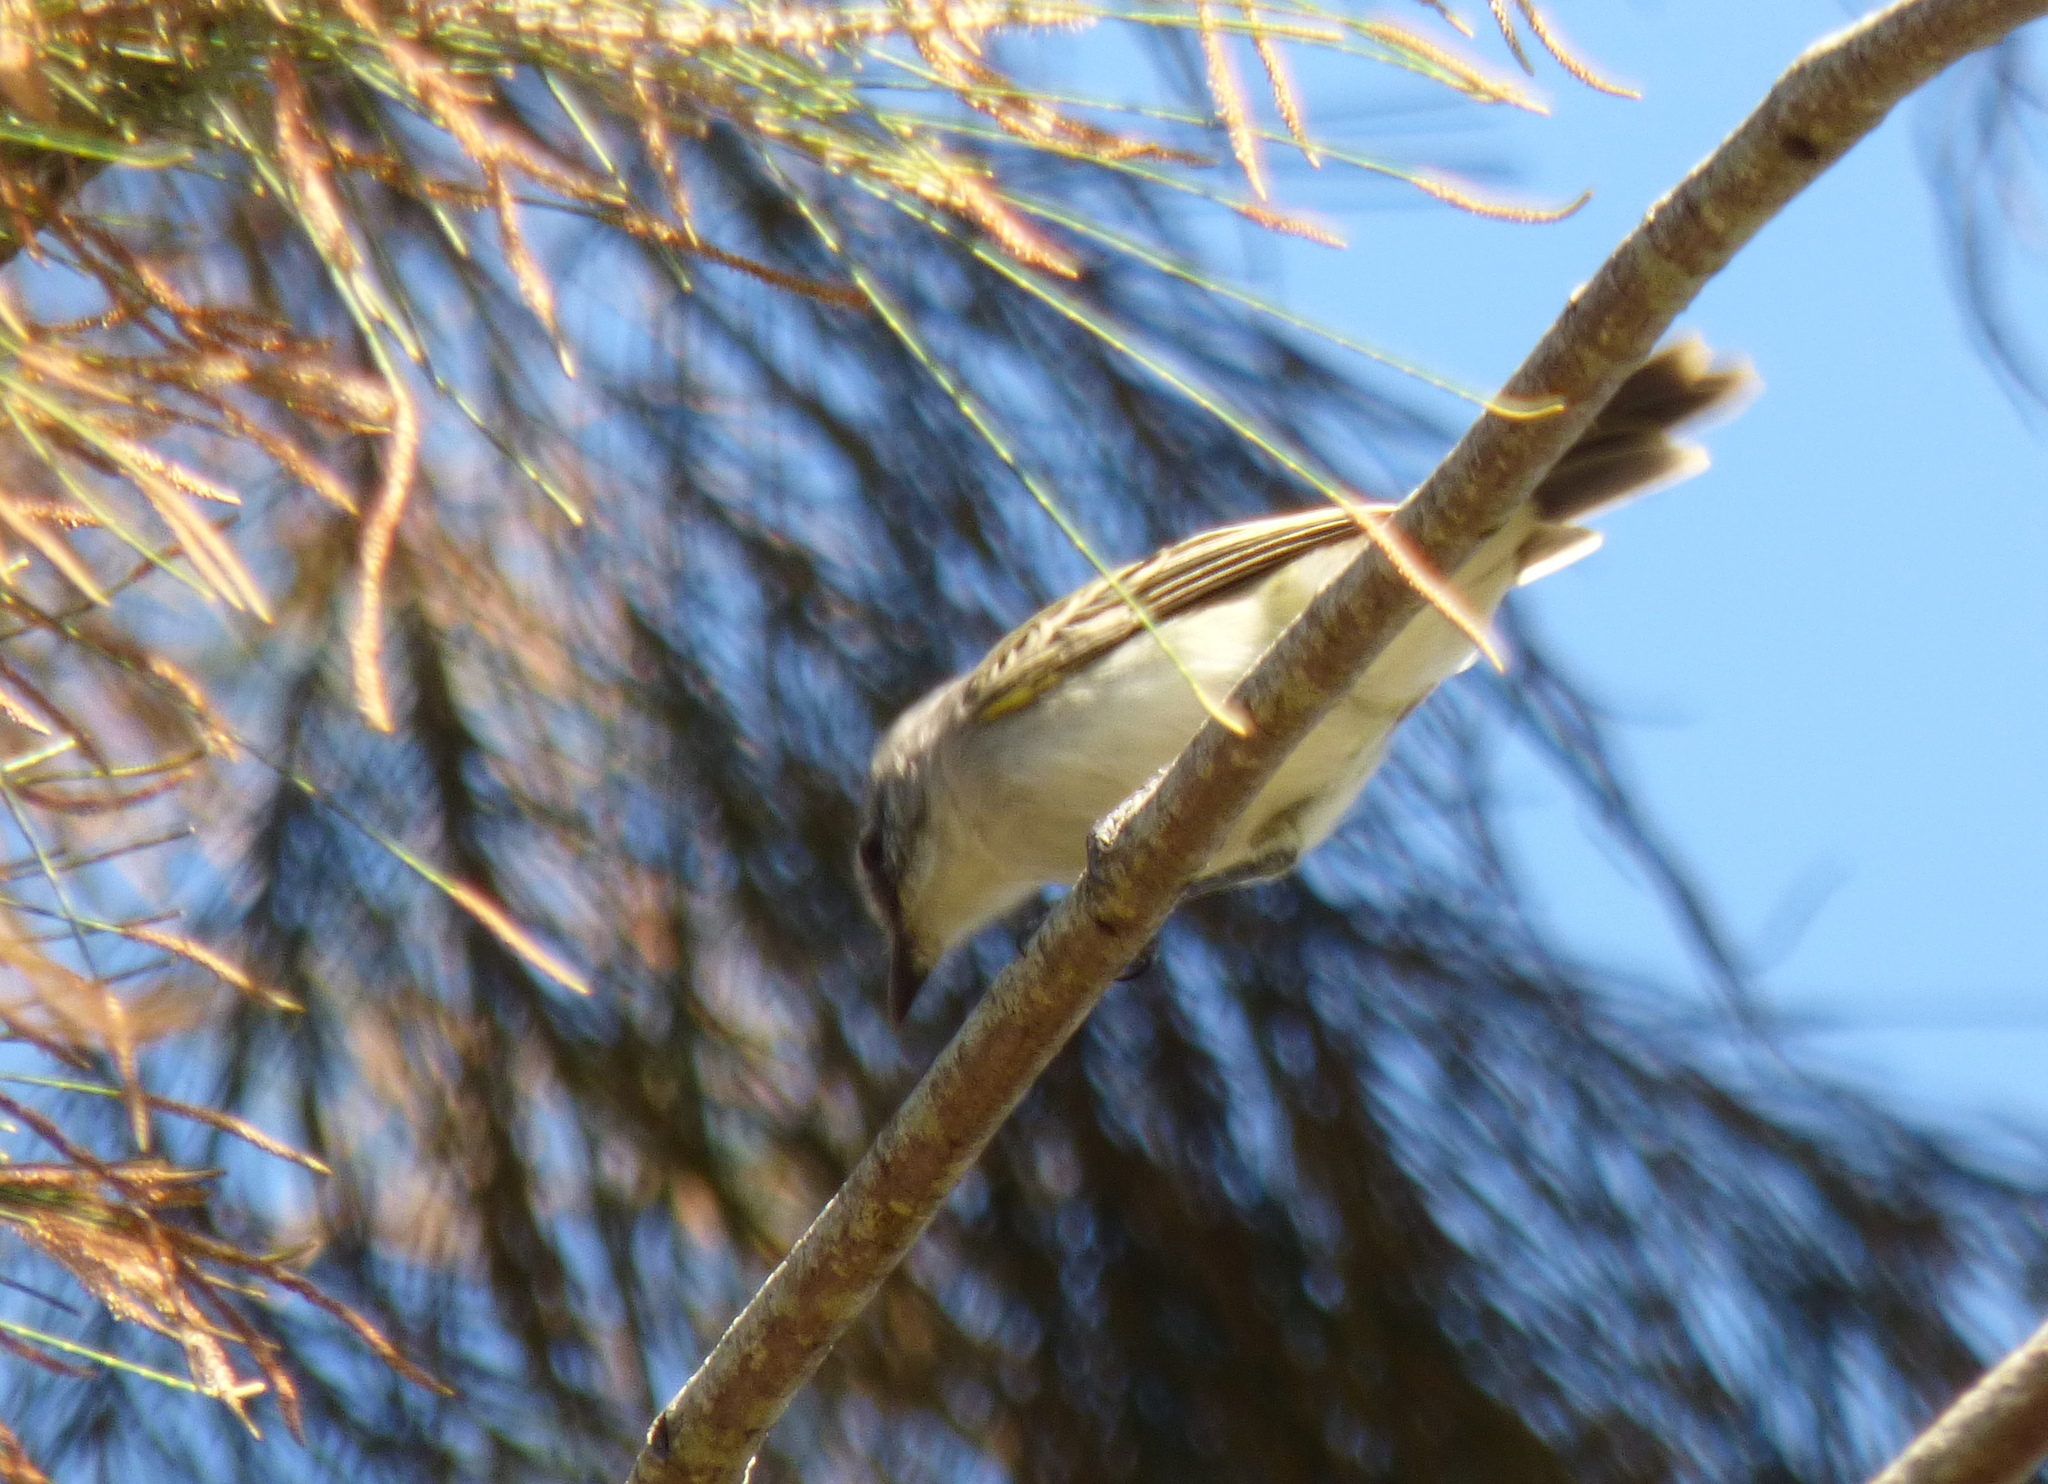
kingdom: Animalia
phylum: Chordata
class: Aves
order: Passeriformes
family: Tyrannidae
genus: Suiriri
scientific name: Suiriri suiriri
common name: Suiriri flycatcher
